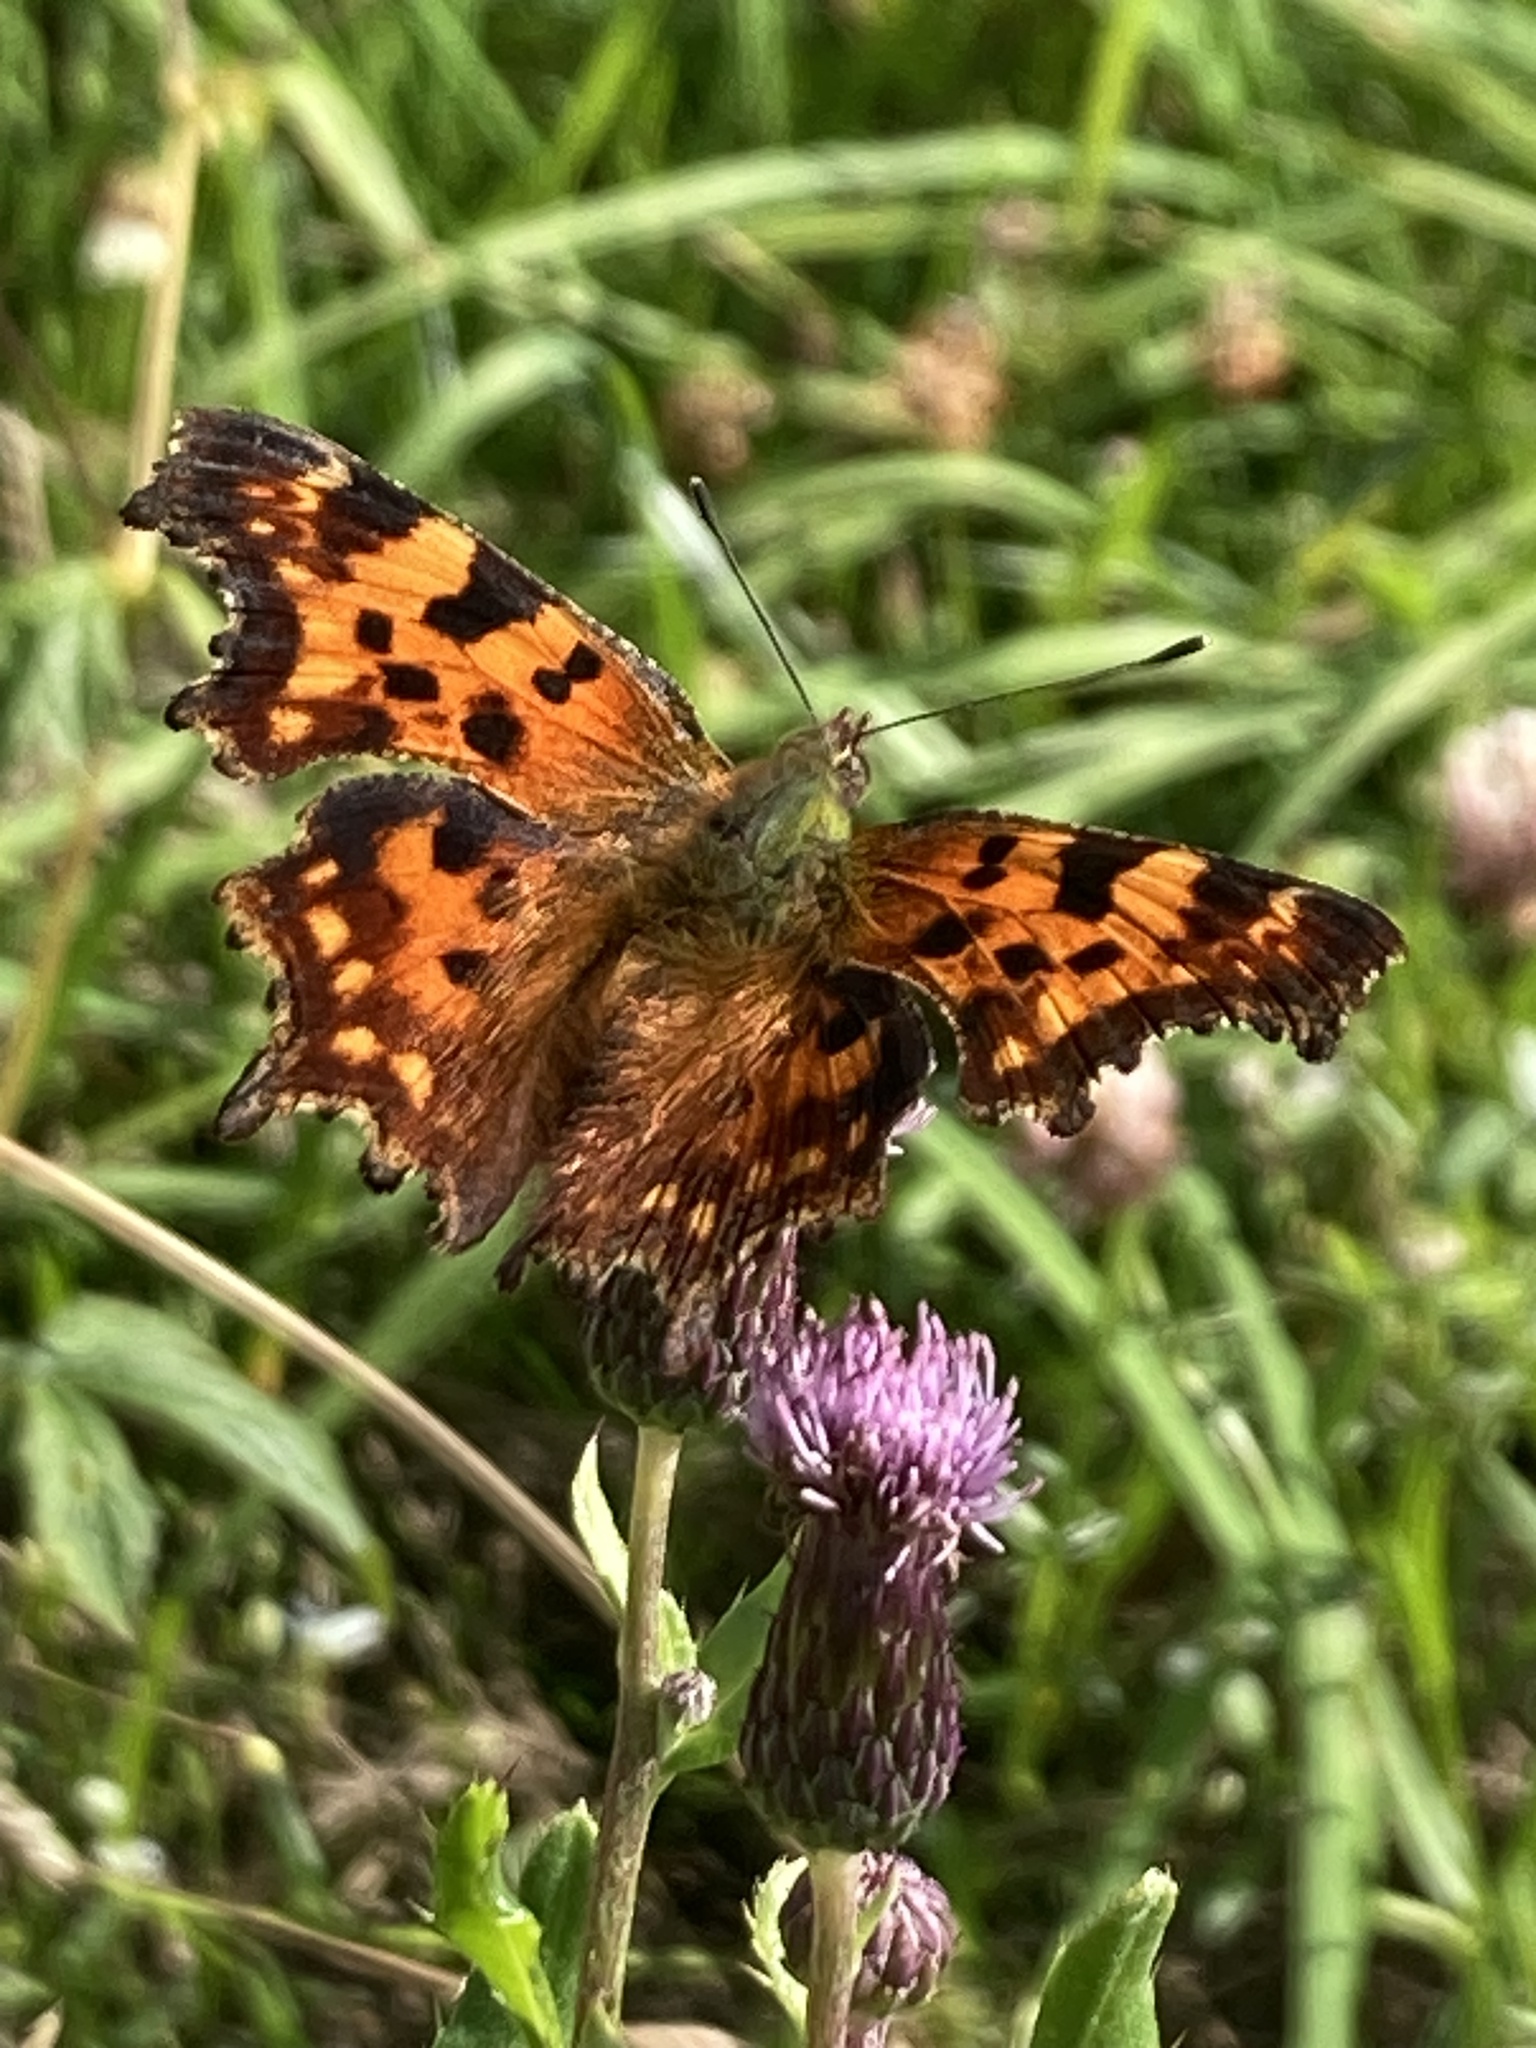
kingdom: Animalia
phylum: Arthropoda
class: Insecta
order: Lepidoptera
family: Nymphalidae
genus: Polygonia
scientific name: Polygonia c-album
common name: Comma
